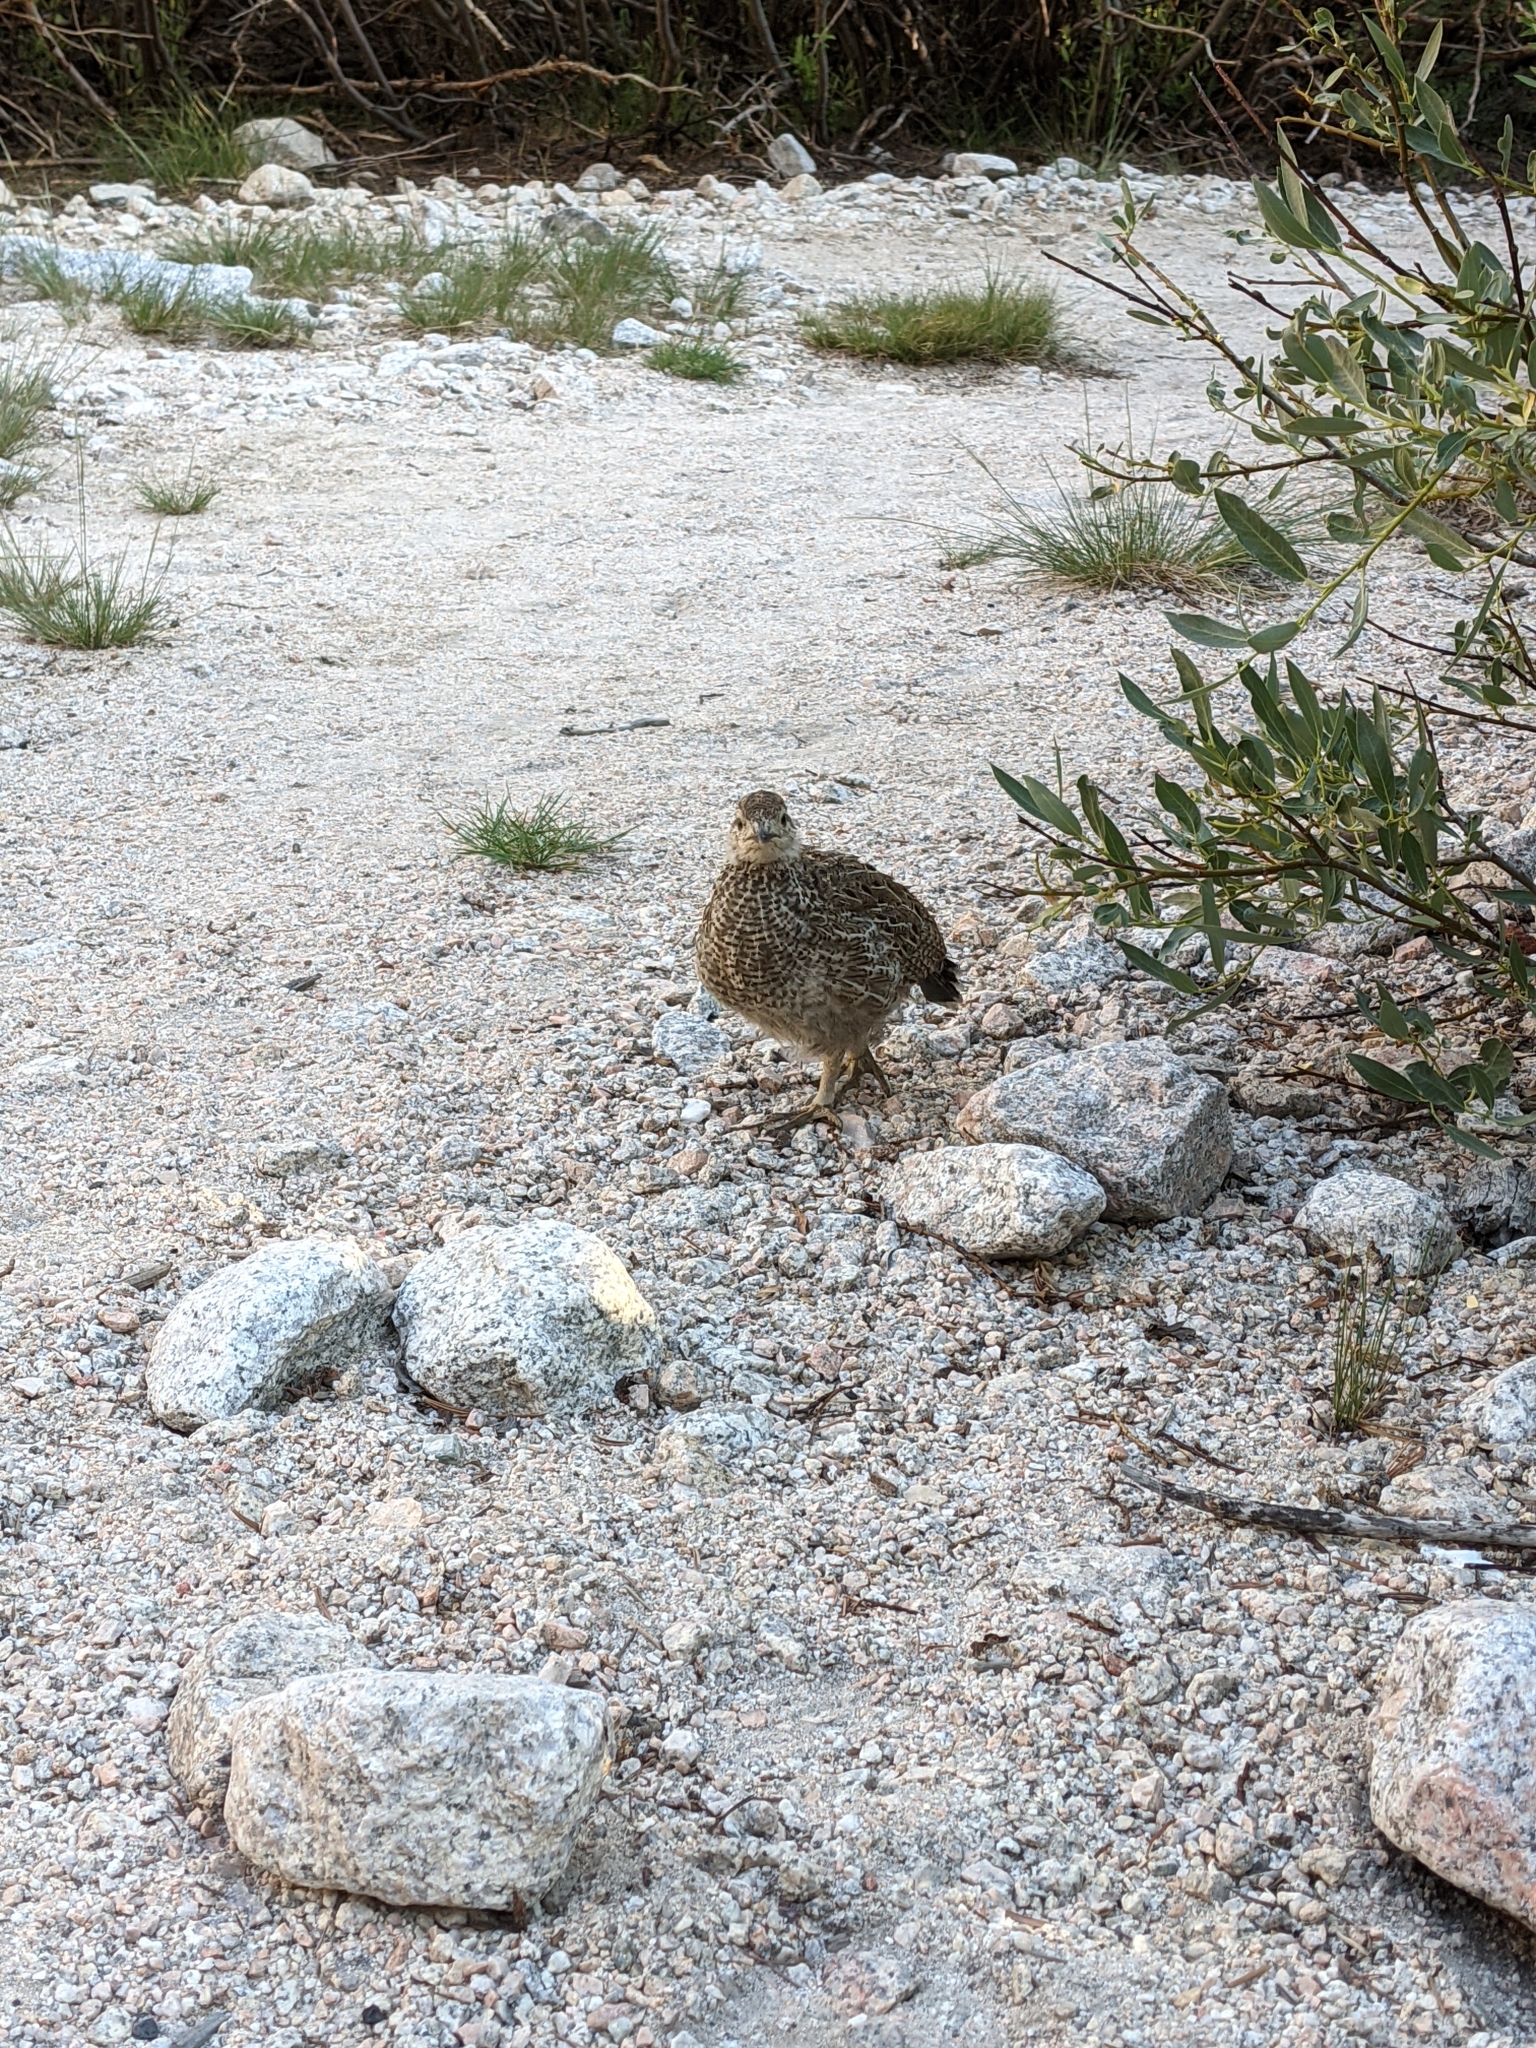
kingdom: Animalia
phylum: Chordata
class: Aves
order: Galliformes
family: Phasianidae
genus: Dendragapus
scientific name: Dendragapus fuliginosus
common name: Sooty grouse
